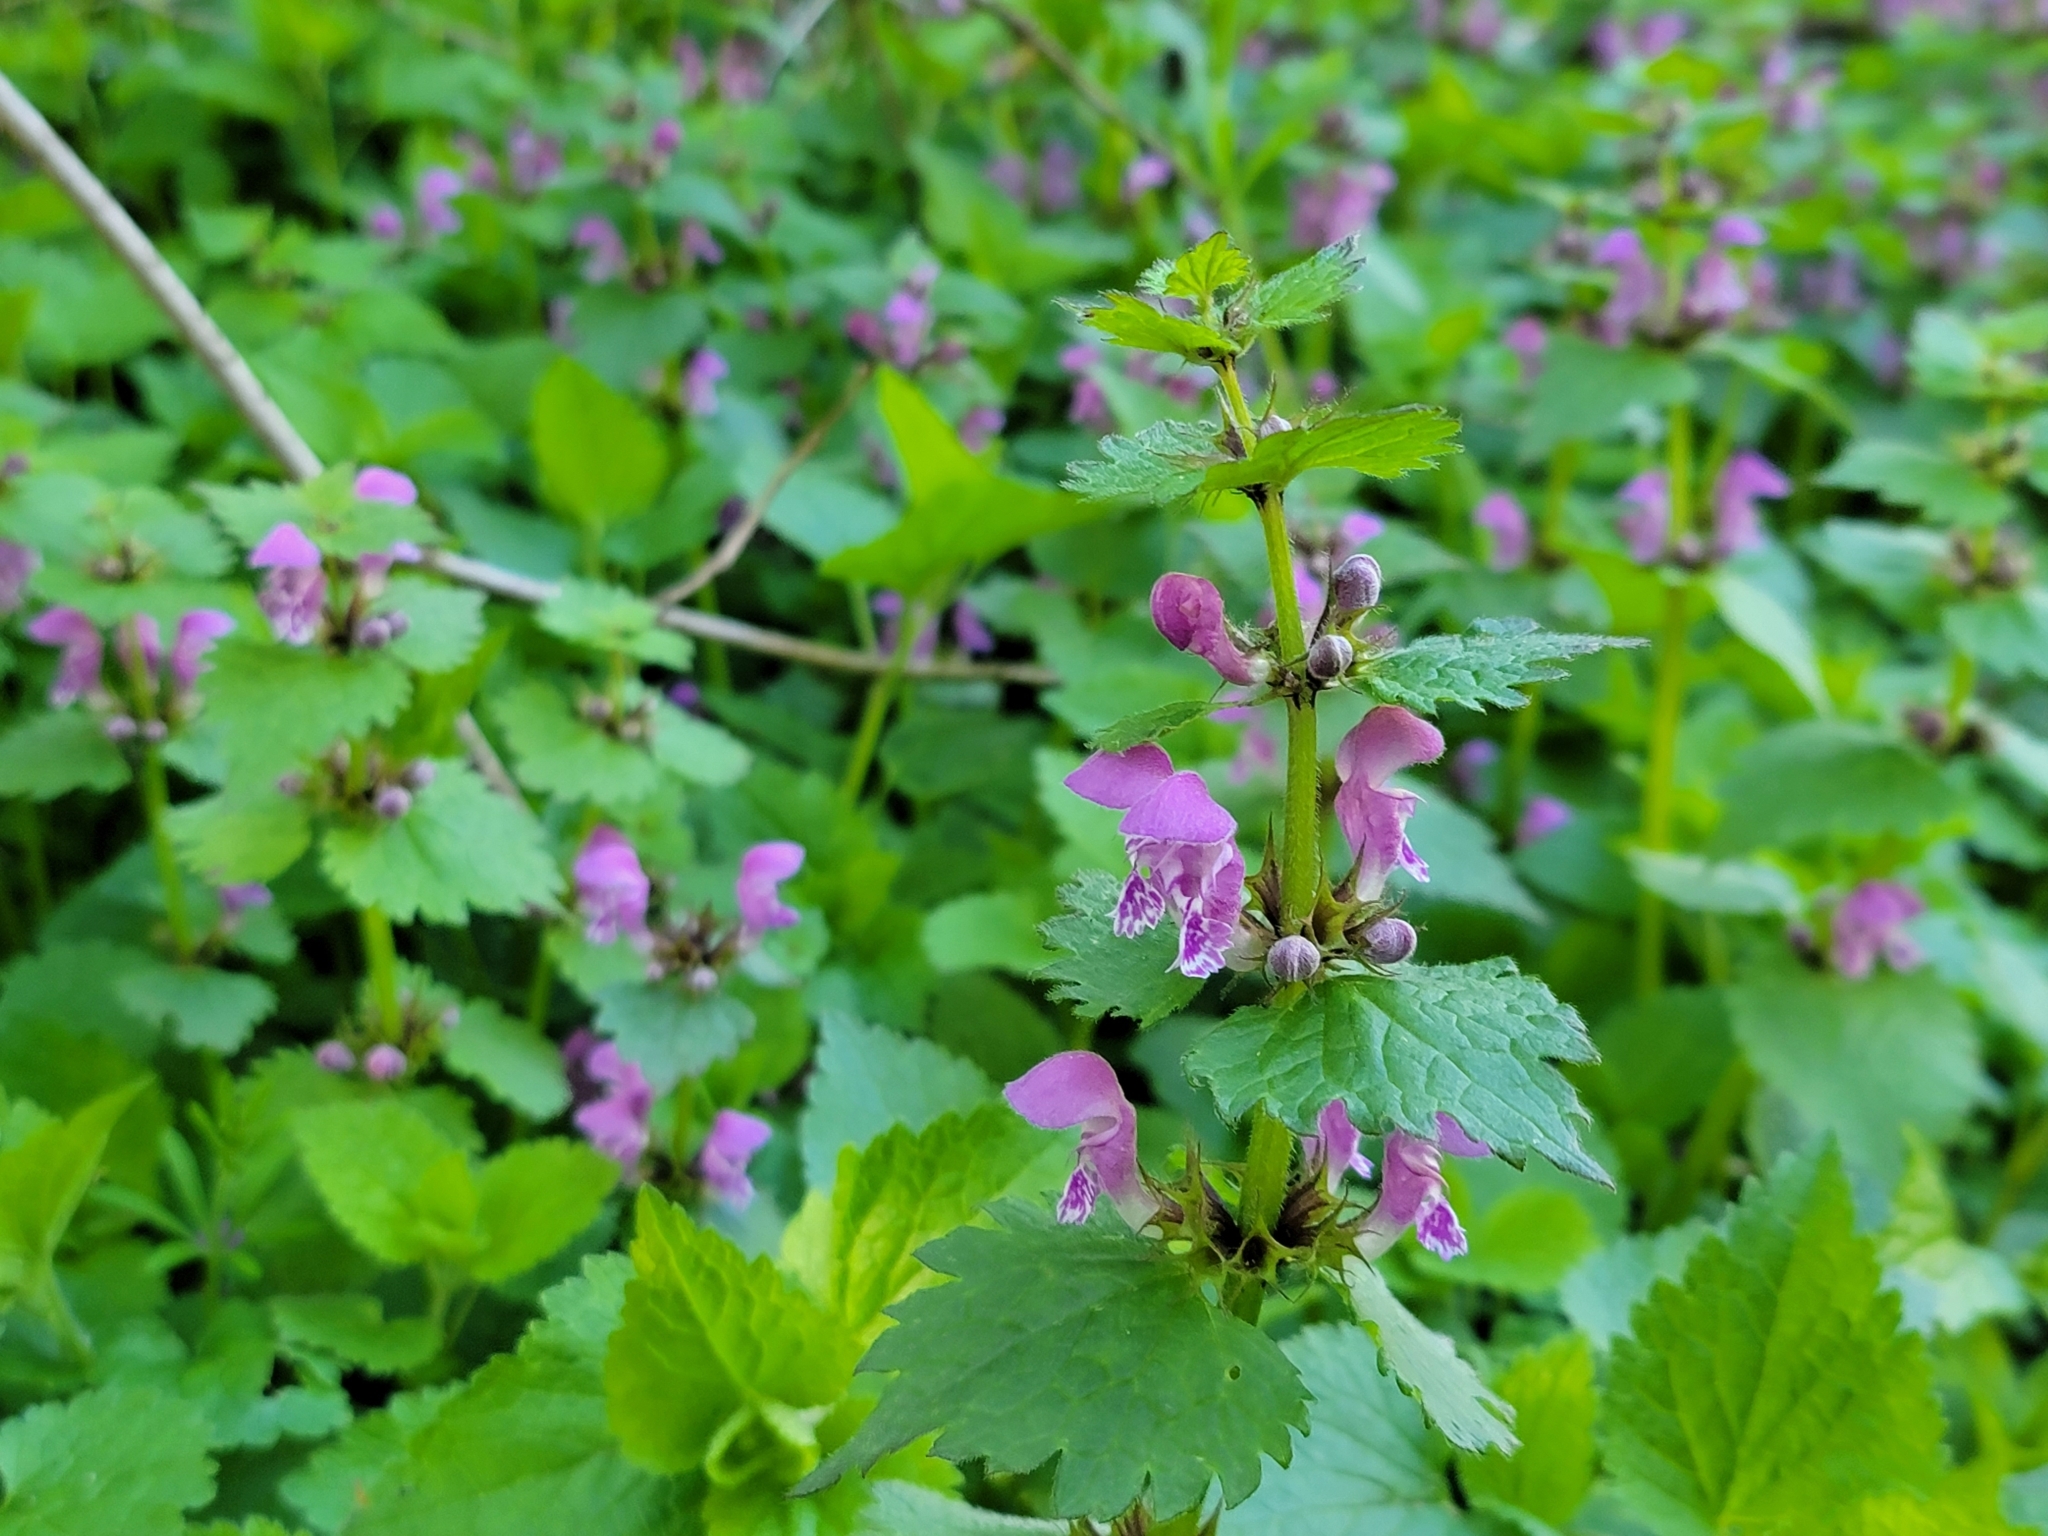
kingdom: Plantae
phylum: Tracheophyta
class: Magnoliopsida
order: Lamiales
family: Lamiaceae
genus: Lamium
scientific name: Lamium maculatum
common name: Spotted dead-nettle
